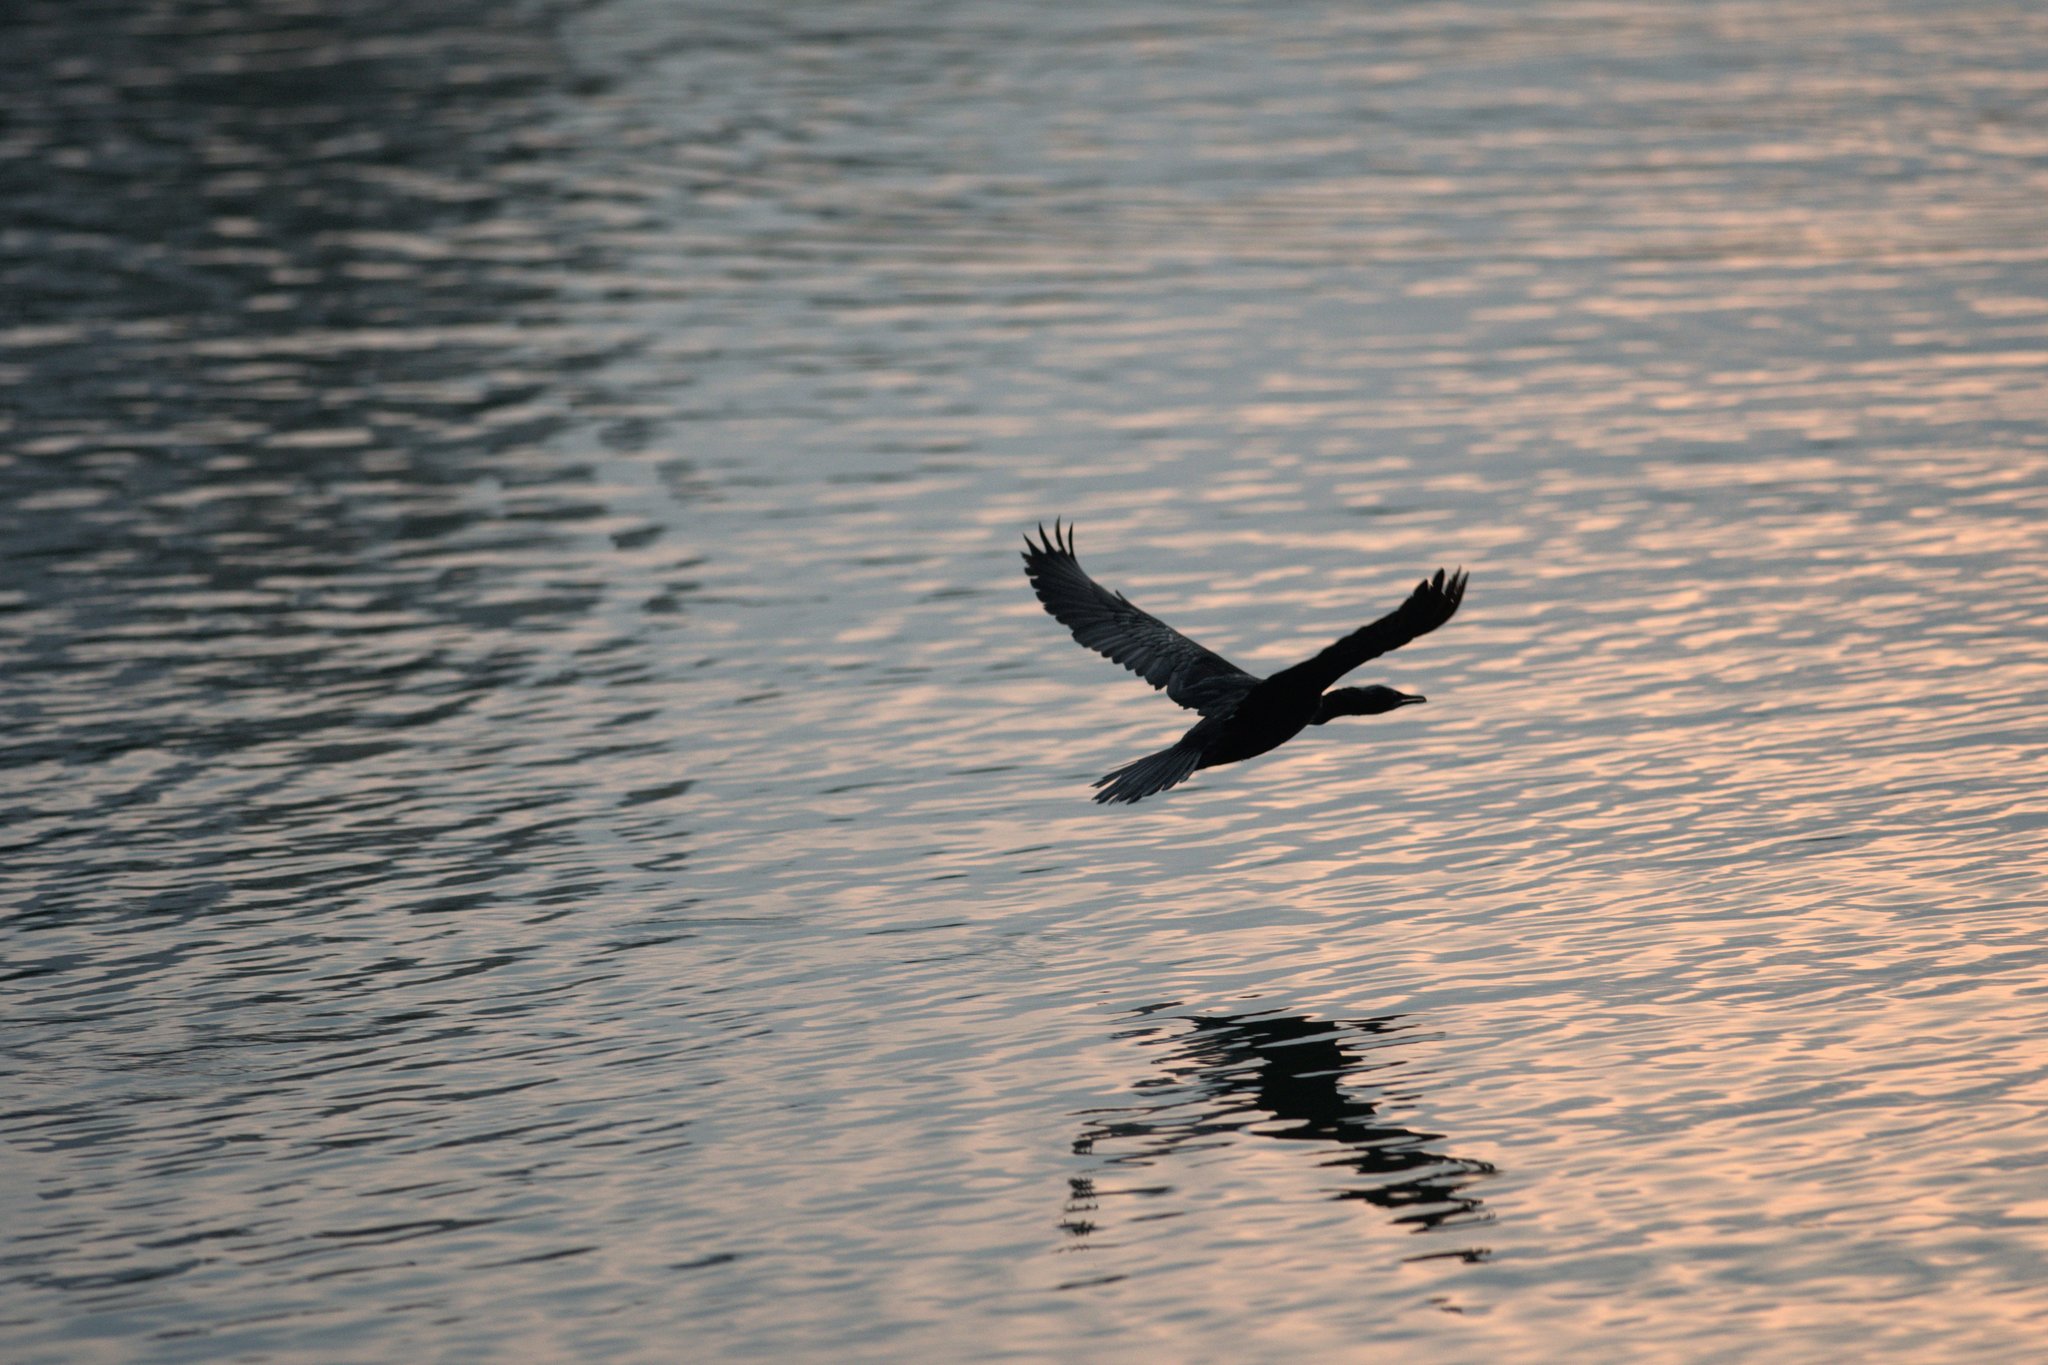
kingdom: Animalia
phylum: Chordata
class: Aves
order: Suliformes
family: Phalacrocoracidae
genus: Microcarbo
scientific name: Microcarbo niger
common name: Little cormorant
